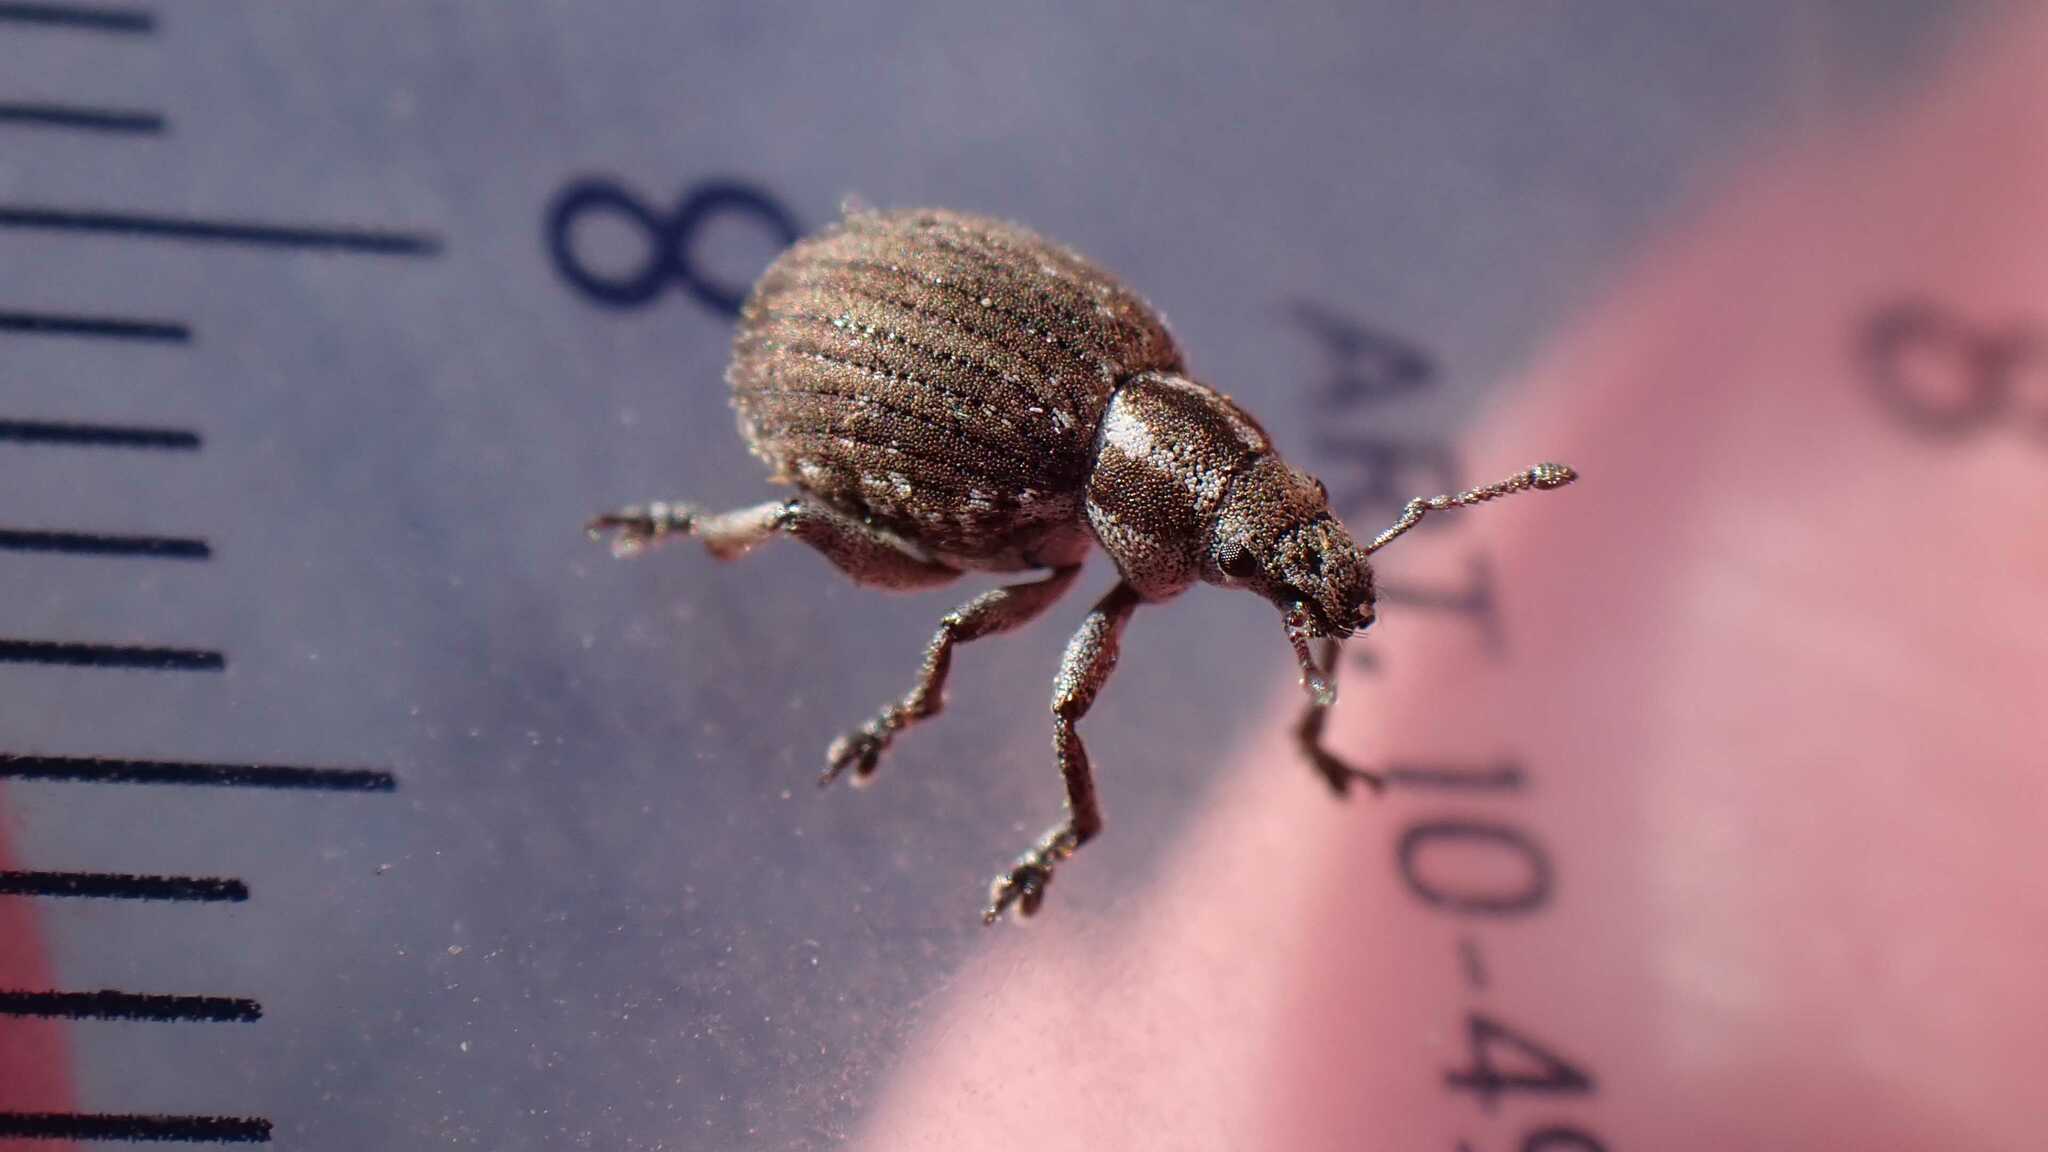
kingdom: Animalia
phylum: Arthropoda
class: Insecta
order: Coleoptera
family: Curculionidae
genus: Philopedon
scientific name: Philopedon plagiatum
